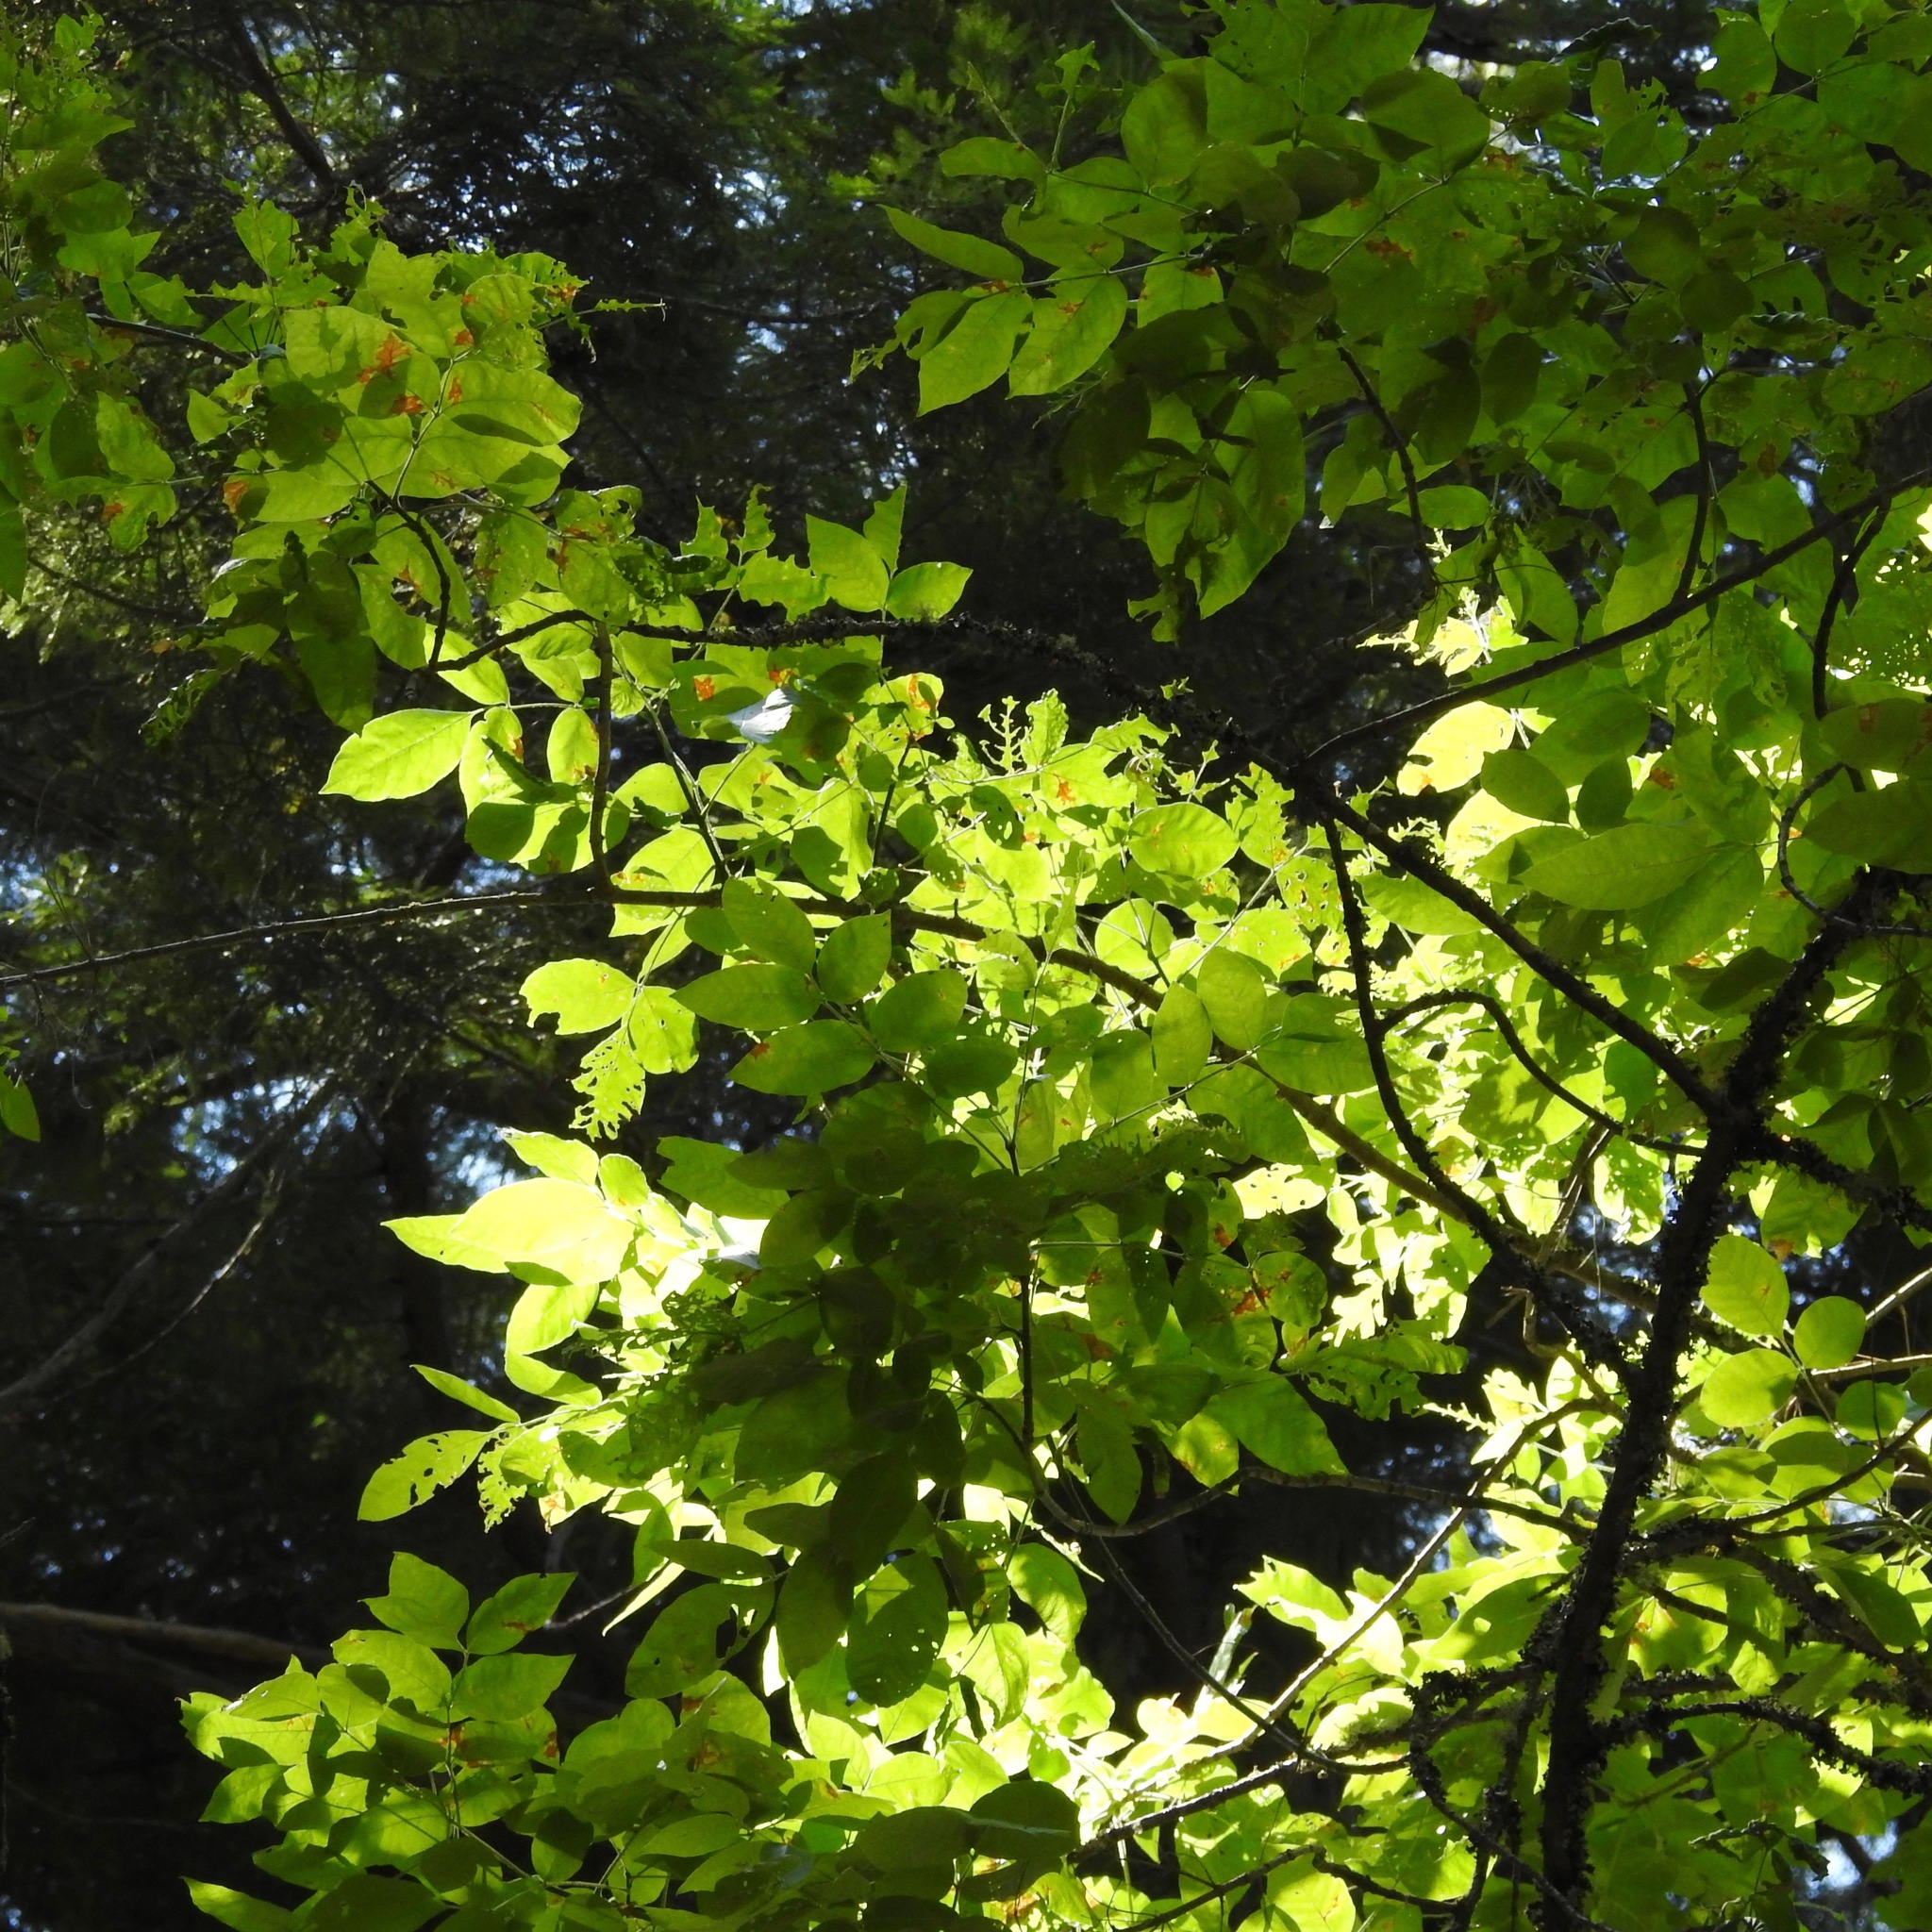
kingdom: Plantae
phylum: Tracheophyta
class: Magnoliopsida
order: Lamiales
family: Oleaceae
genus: Fraxinus
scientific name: Fraxinus latifolia
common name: Oregon ash
